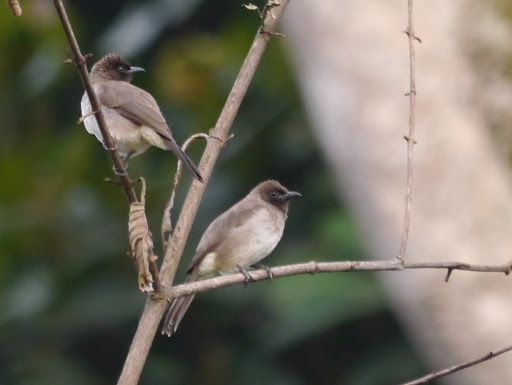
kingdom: Animalia
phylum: Chordata
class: Aves
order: Passeriformes
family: Pycnonotidae
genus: Pycnonotus
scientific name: Pycnonotus barbatus
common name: Common bulbul
